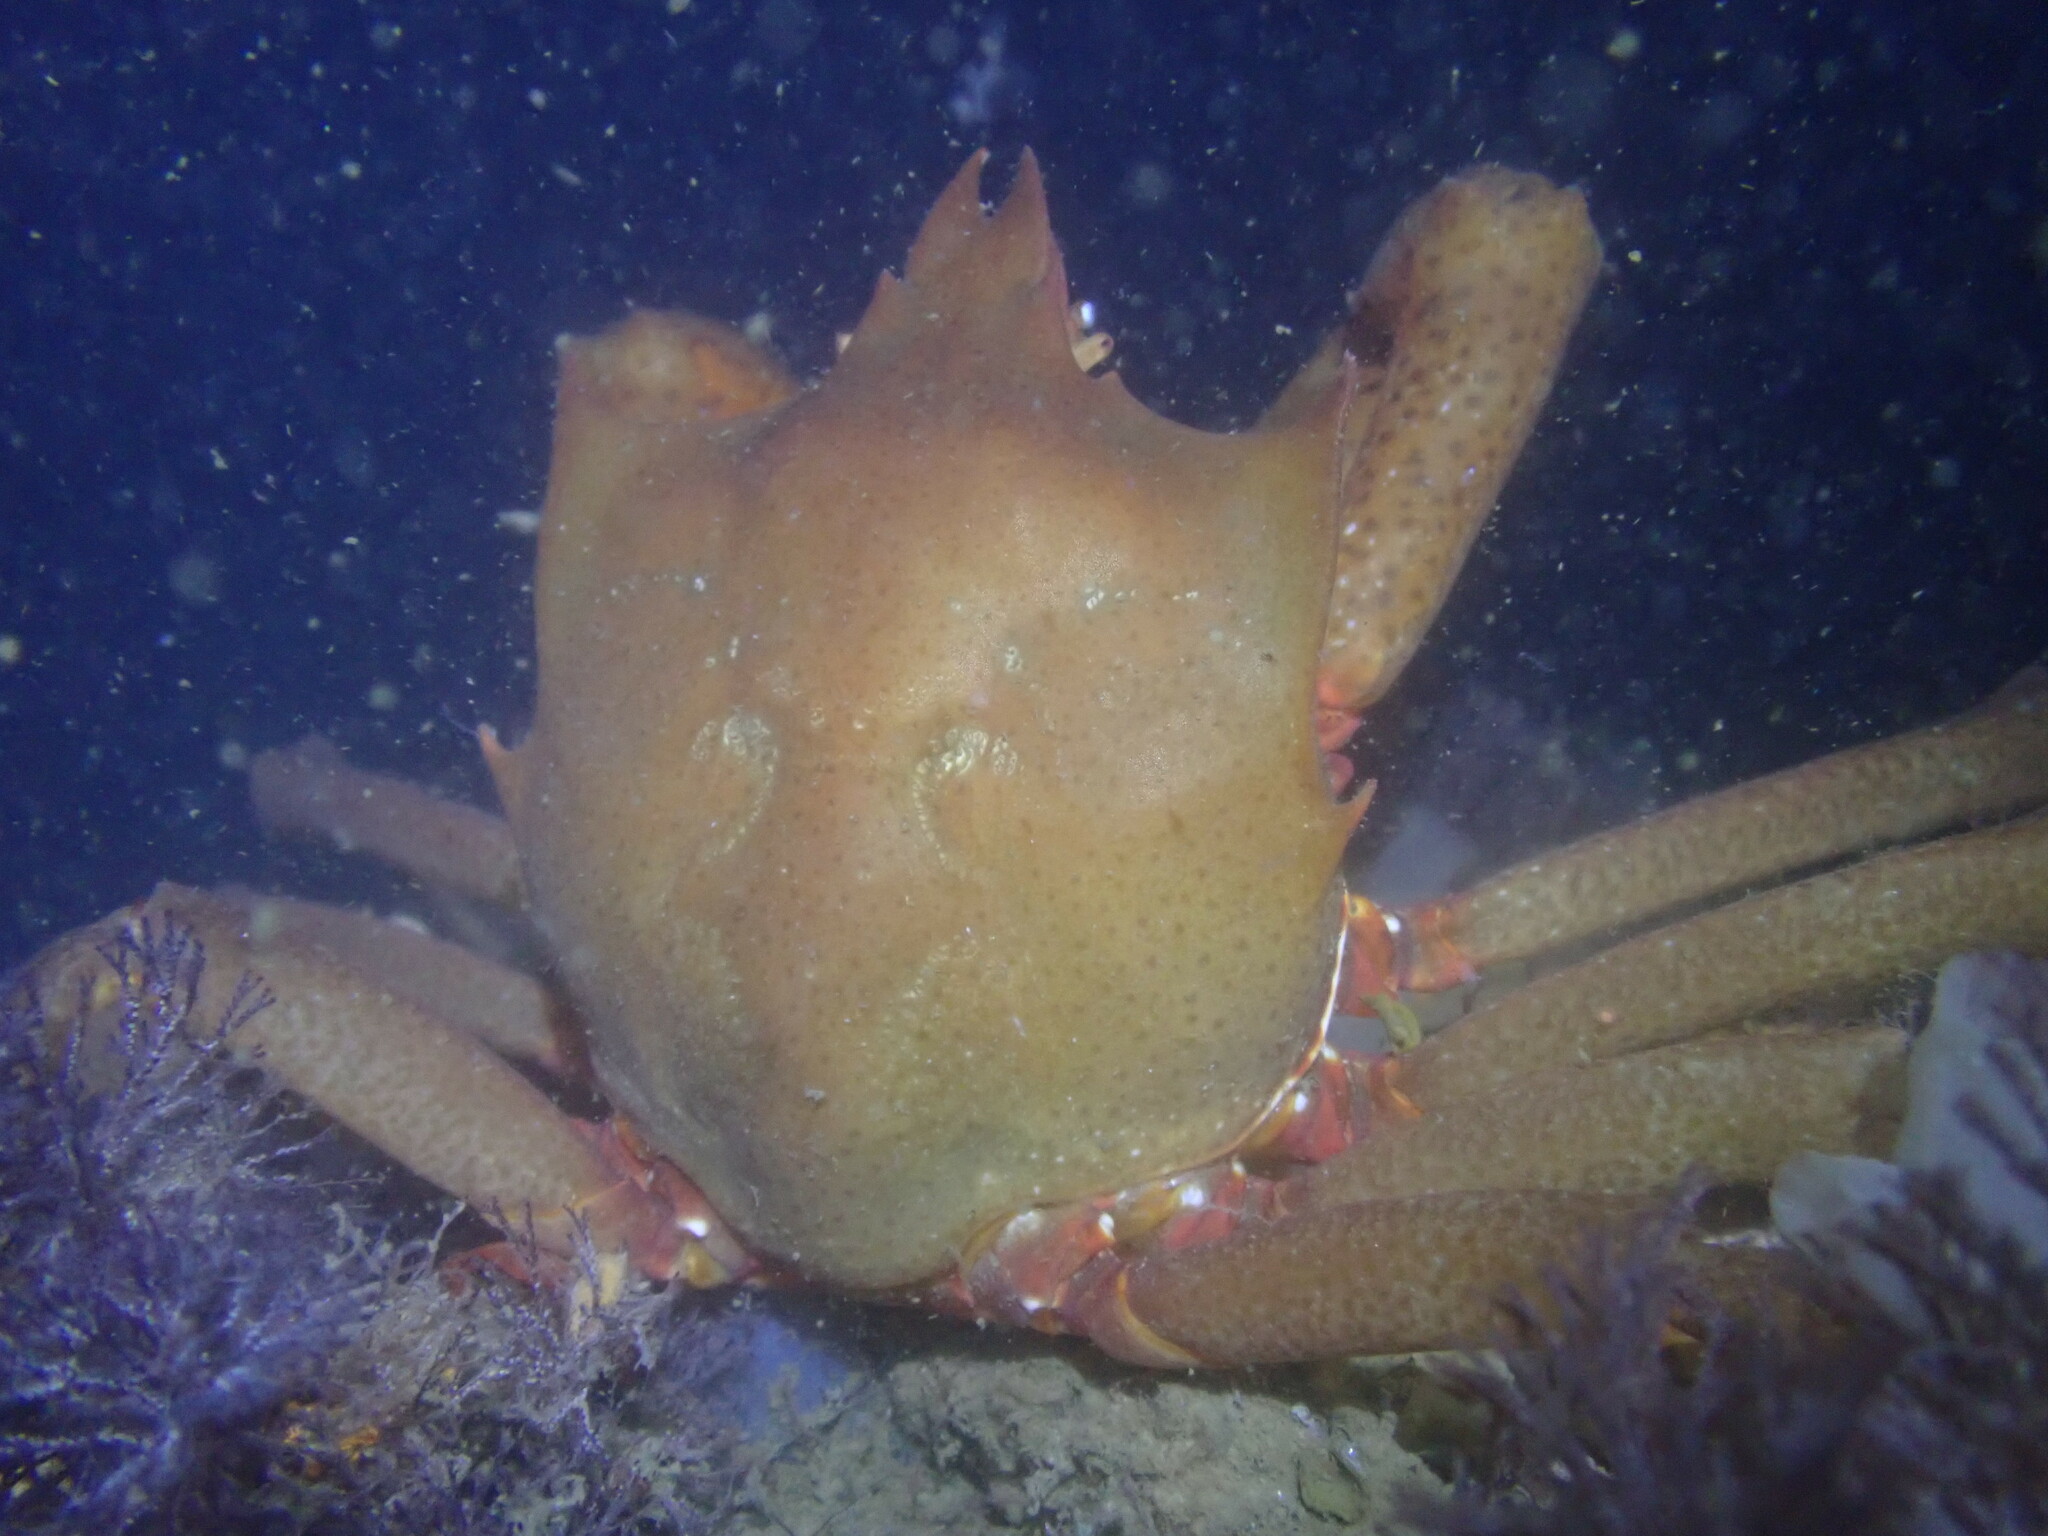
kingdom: Animalia
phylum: Arthropoda
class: Malacostraca
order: Decapoda
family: Epialtidae
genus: Pugettia
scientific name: Pugettia producta
